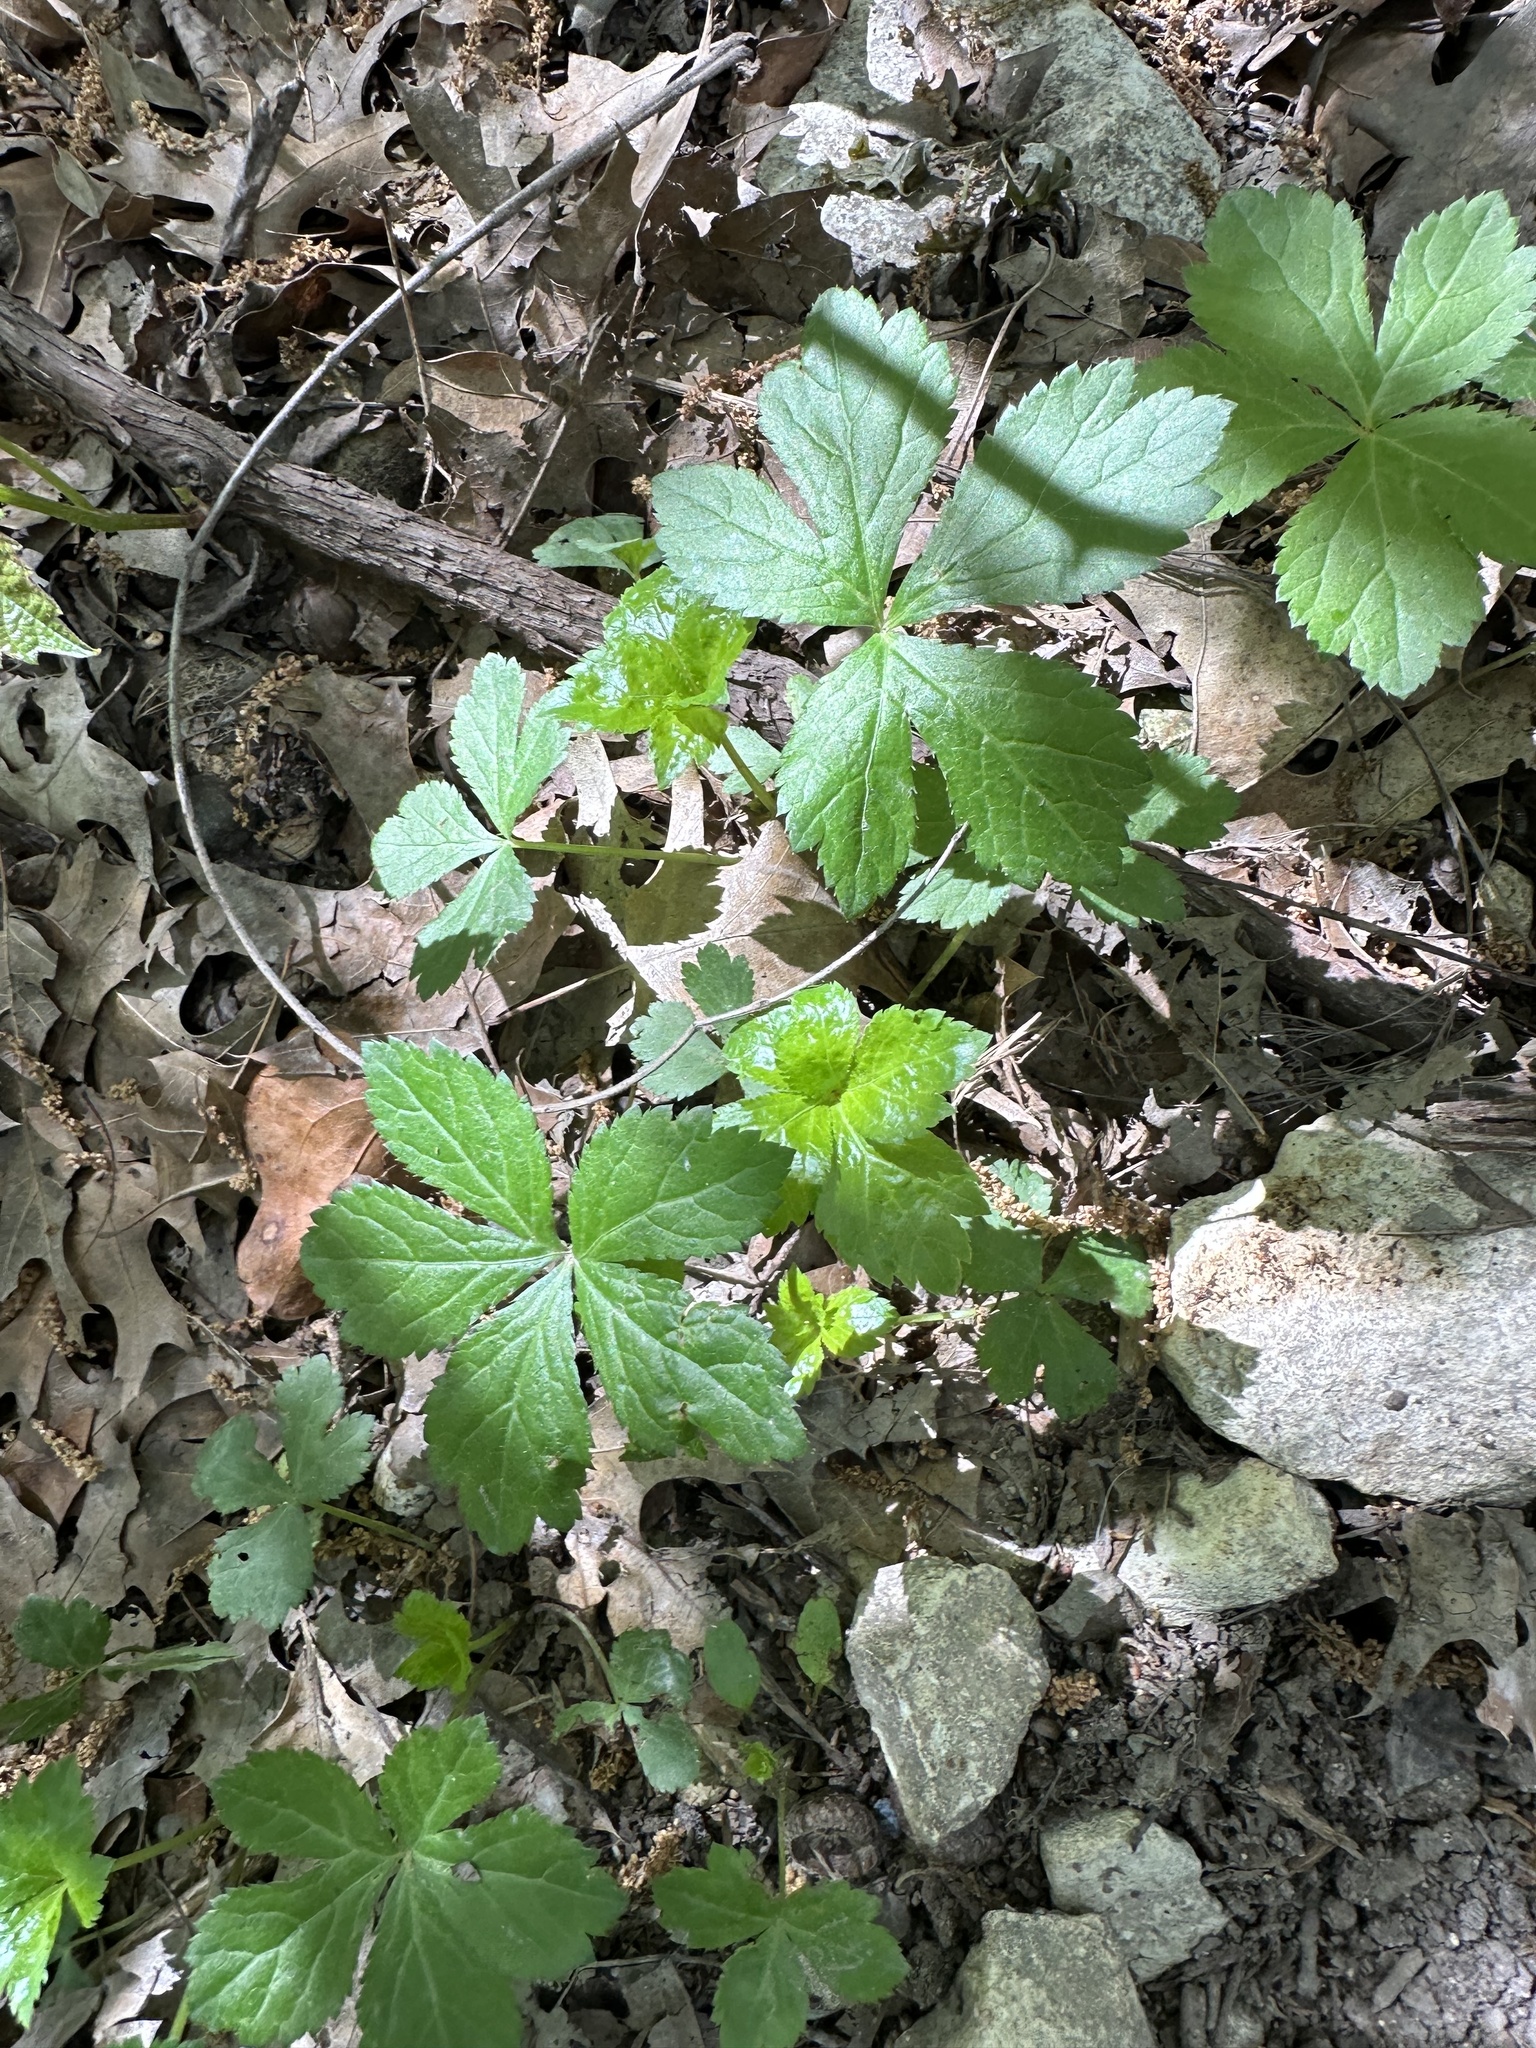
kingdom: Plantae
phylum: Tracheophyta
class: Magnoliopsida
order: Apiales
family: Apiaceae
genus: Sanicula
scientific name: Sanicula canadensis
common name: Canada sanicle
